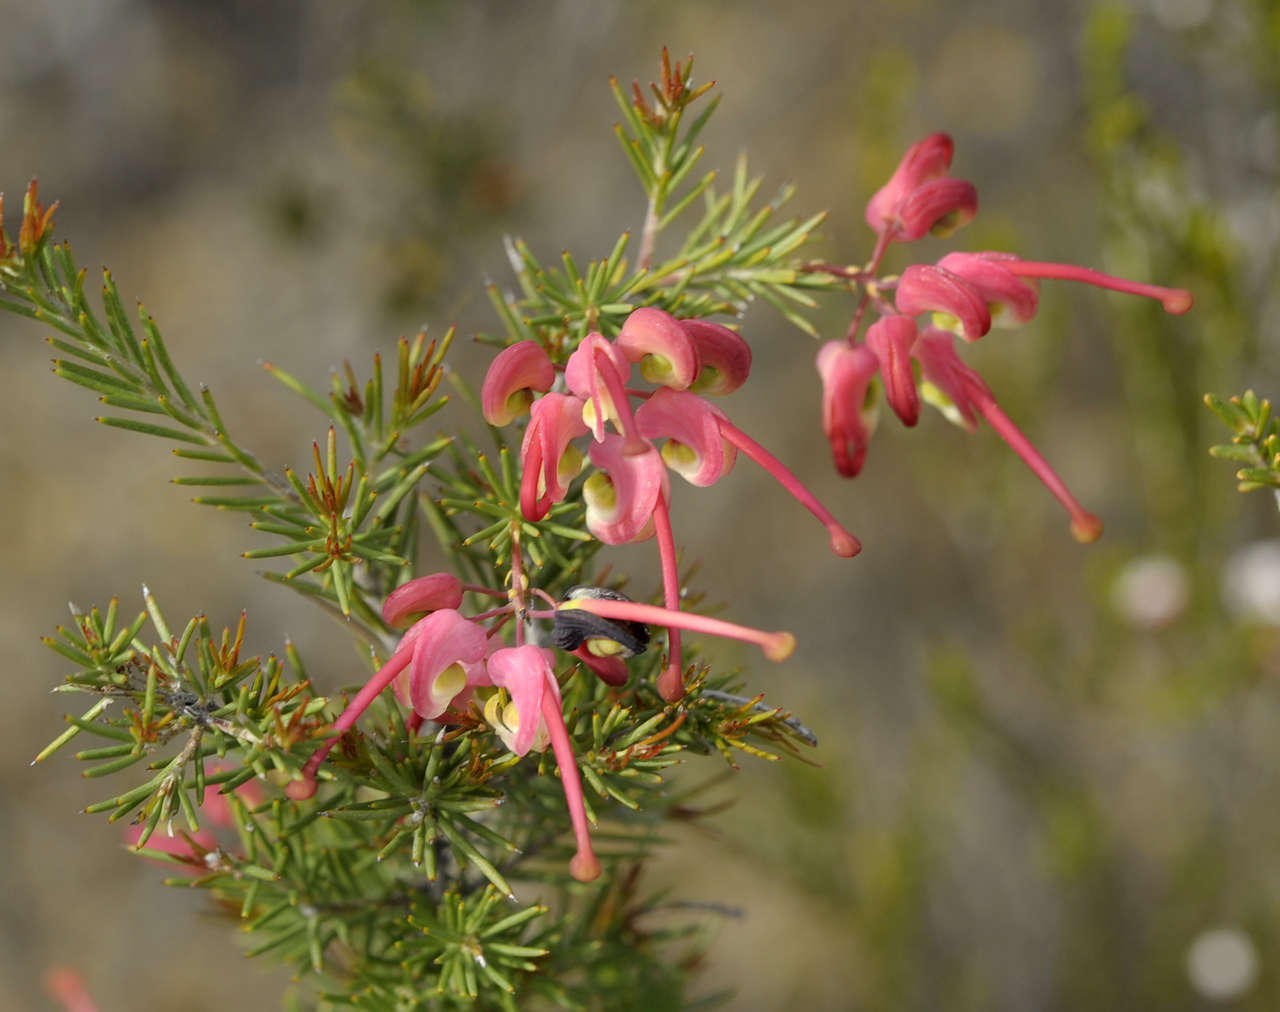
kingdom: Plantae
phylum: Tracheophyta
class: Magnoliopsida
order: Proteales
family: Proteaceae
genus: Grevillea
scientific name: Grevillea rosmarinifolia
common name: Rosemary grevillea
